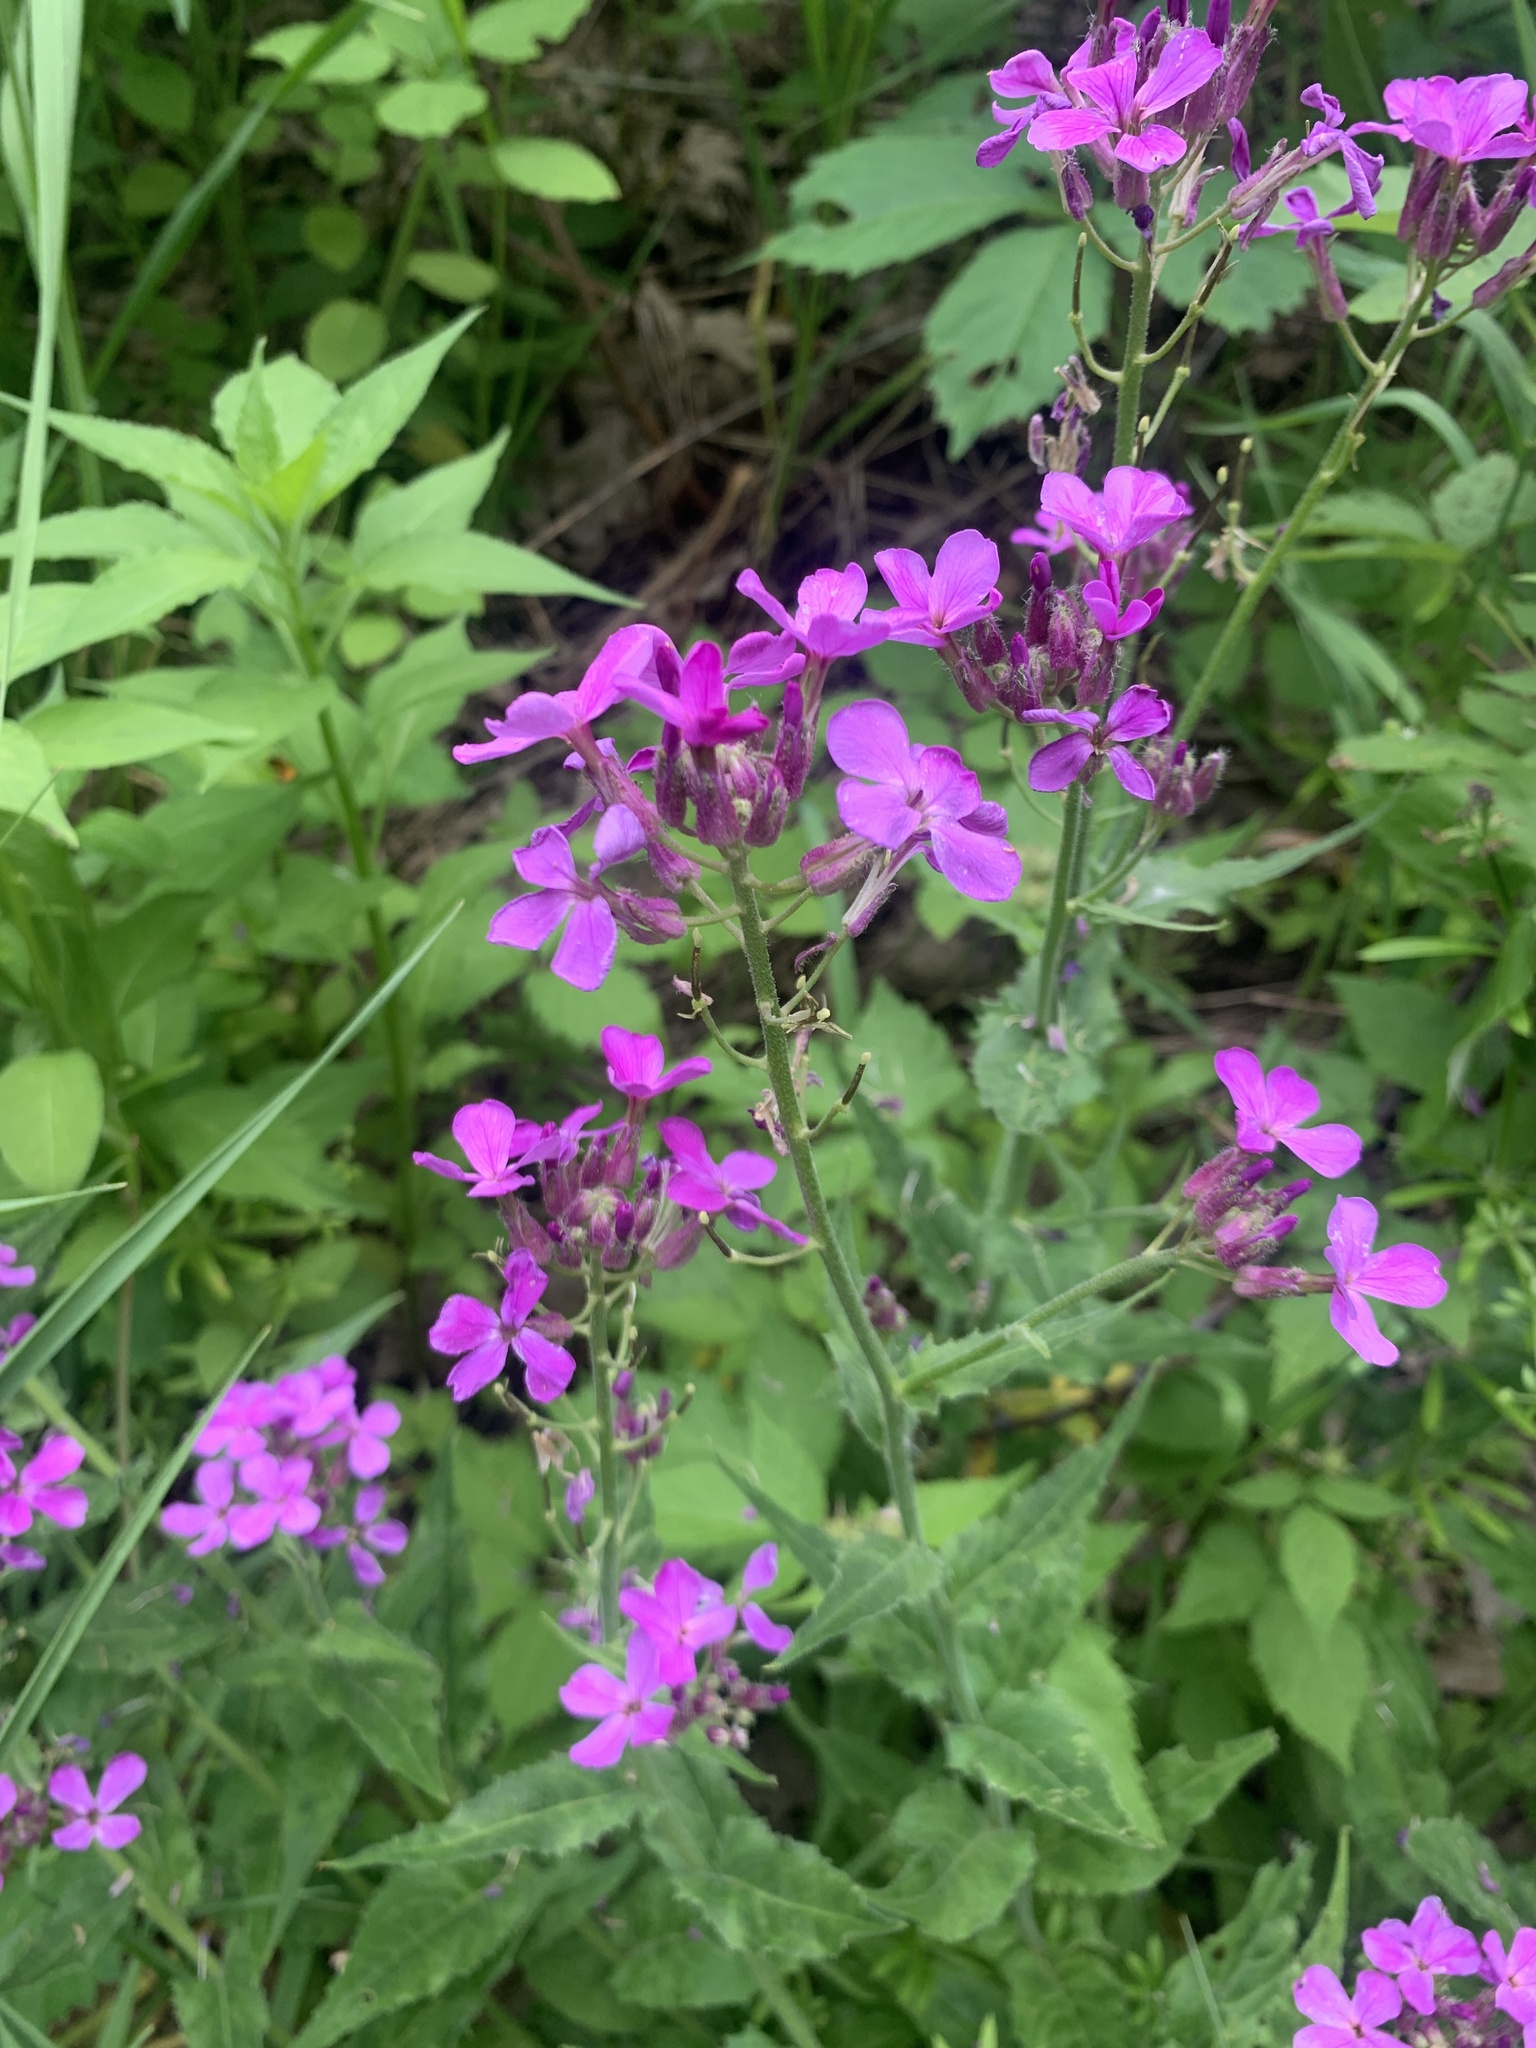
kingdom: Plantae
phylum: Tracheophyta
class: Magnoliopsida
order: Brassicales
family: Brassicaceae
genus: Hesperis
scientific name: Hesperis matronalis
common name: Dame's-violet
